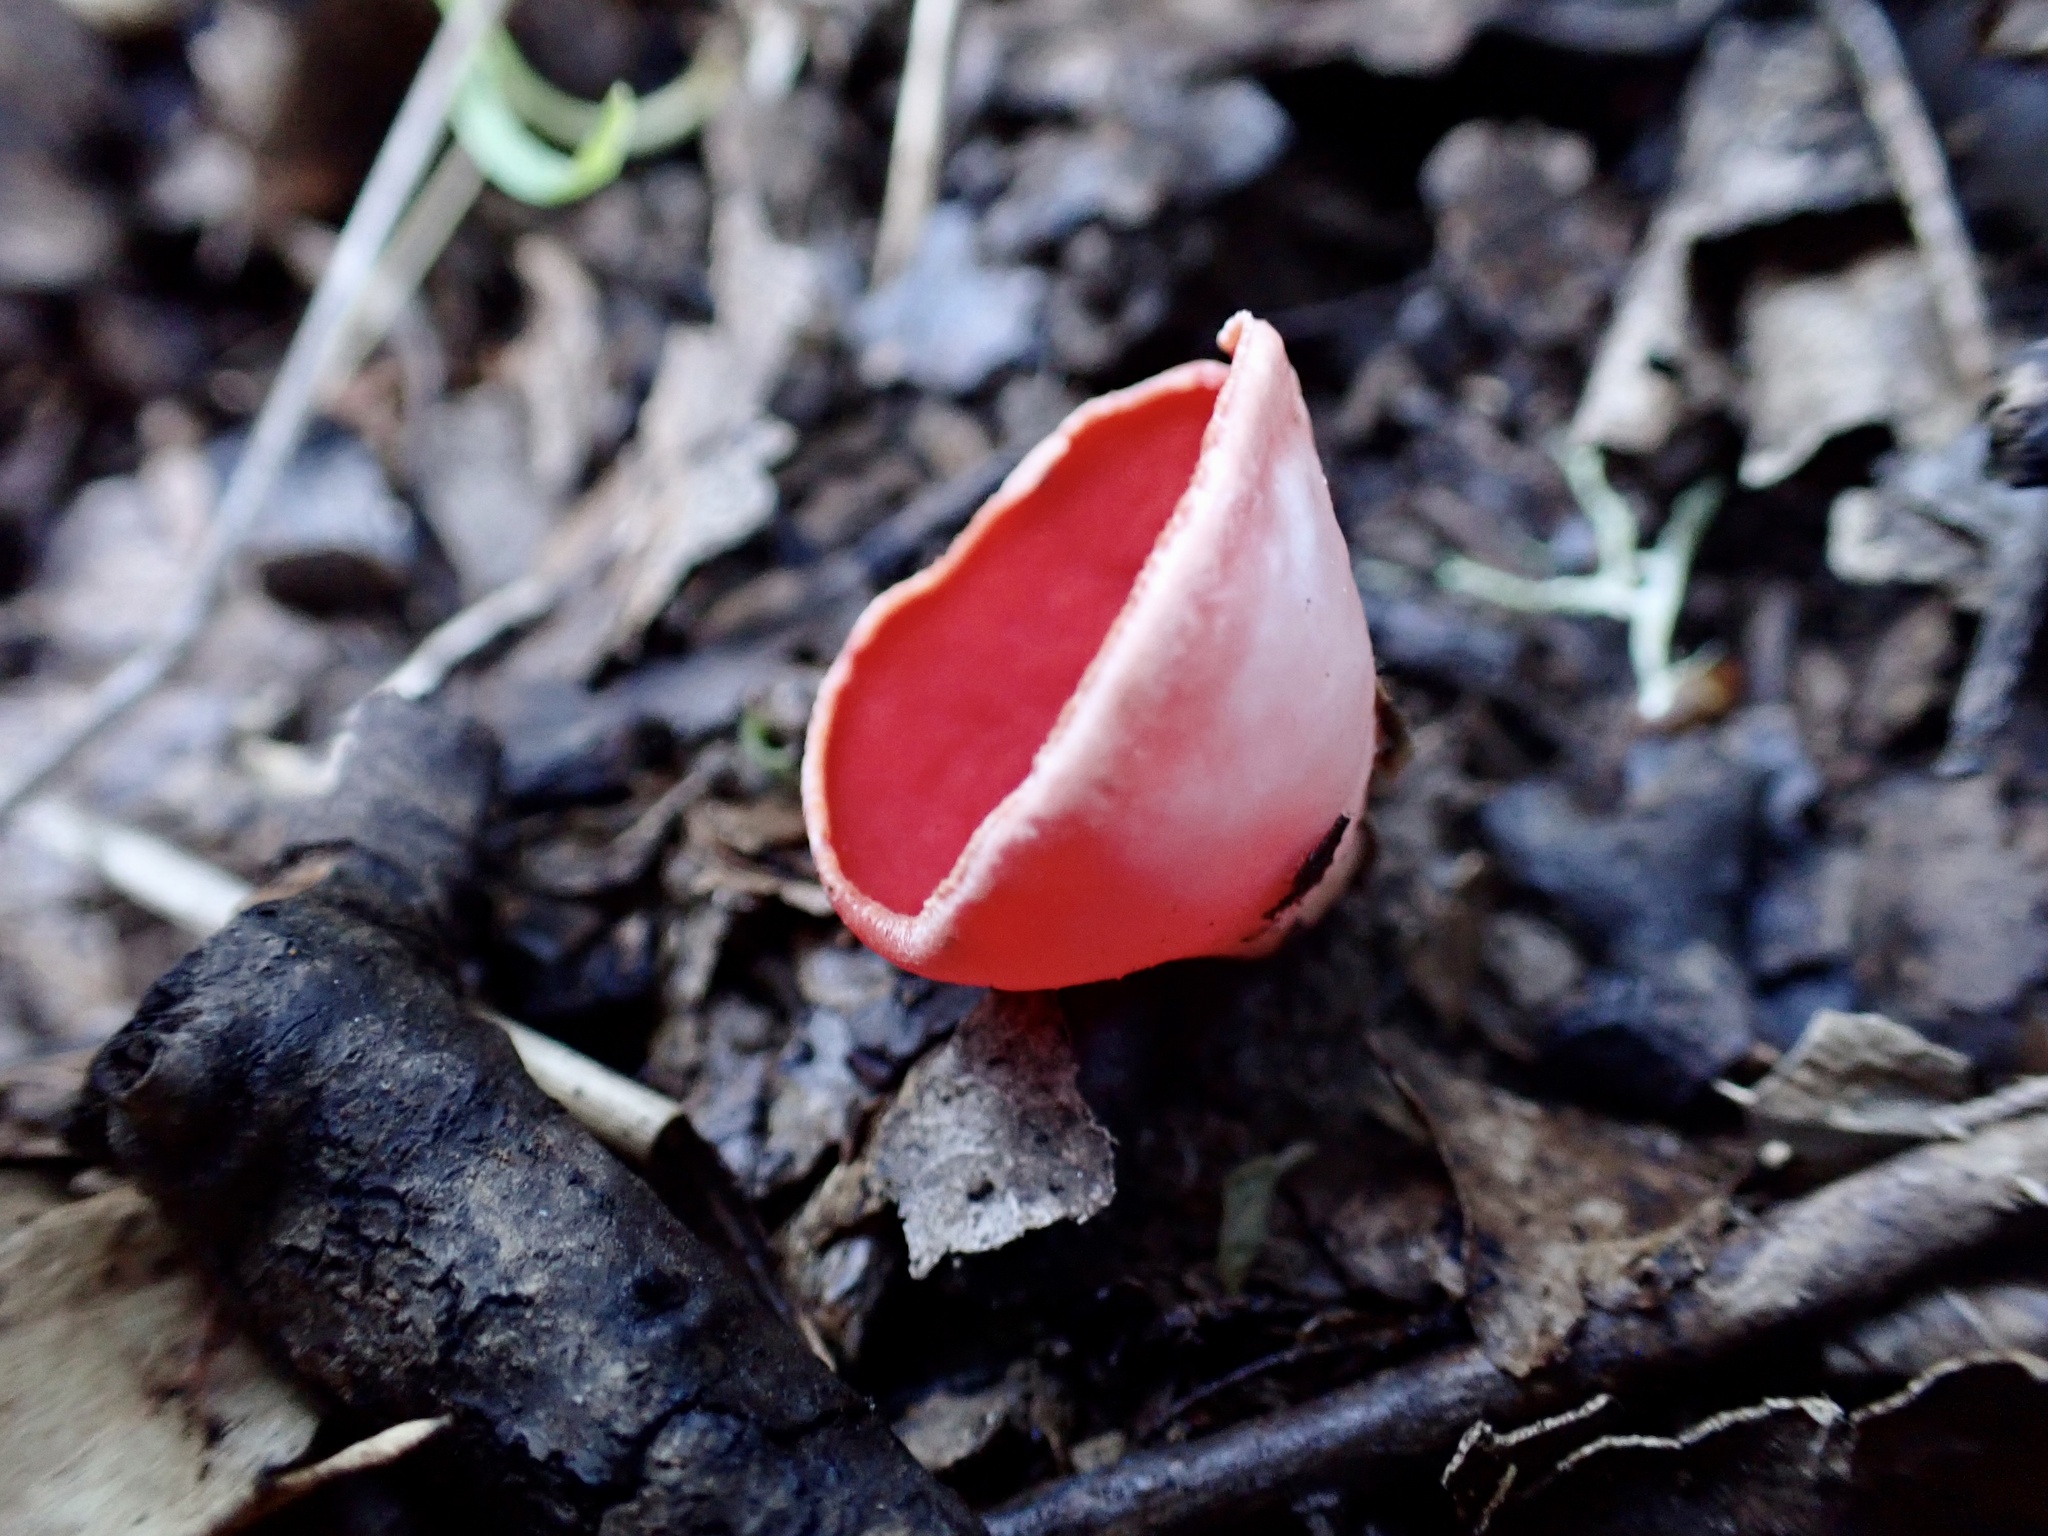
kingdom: Fungi
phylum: Ascomycota
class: Pezizomycetes
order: Pezizales
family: Sarcoscyphaceae
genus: Sarcoscypha
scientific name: Sarcoscypha coccinea
